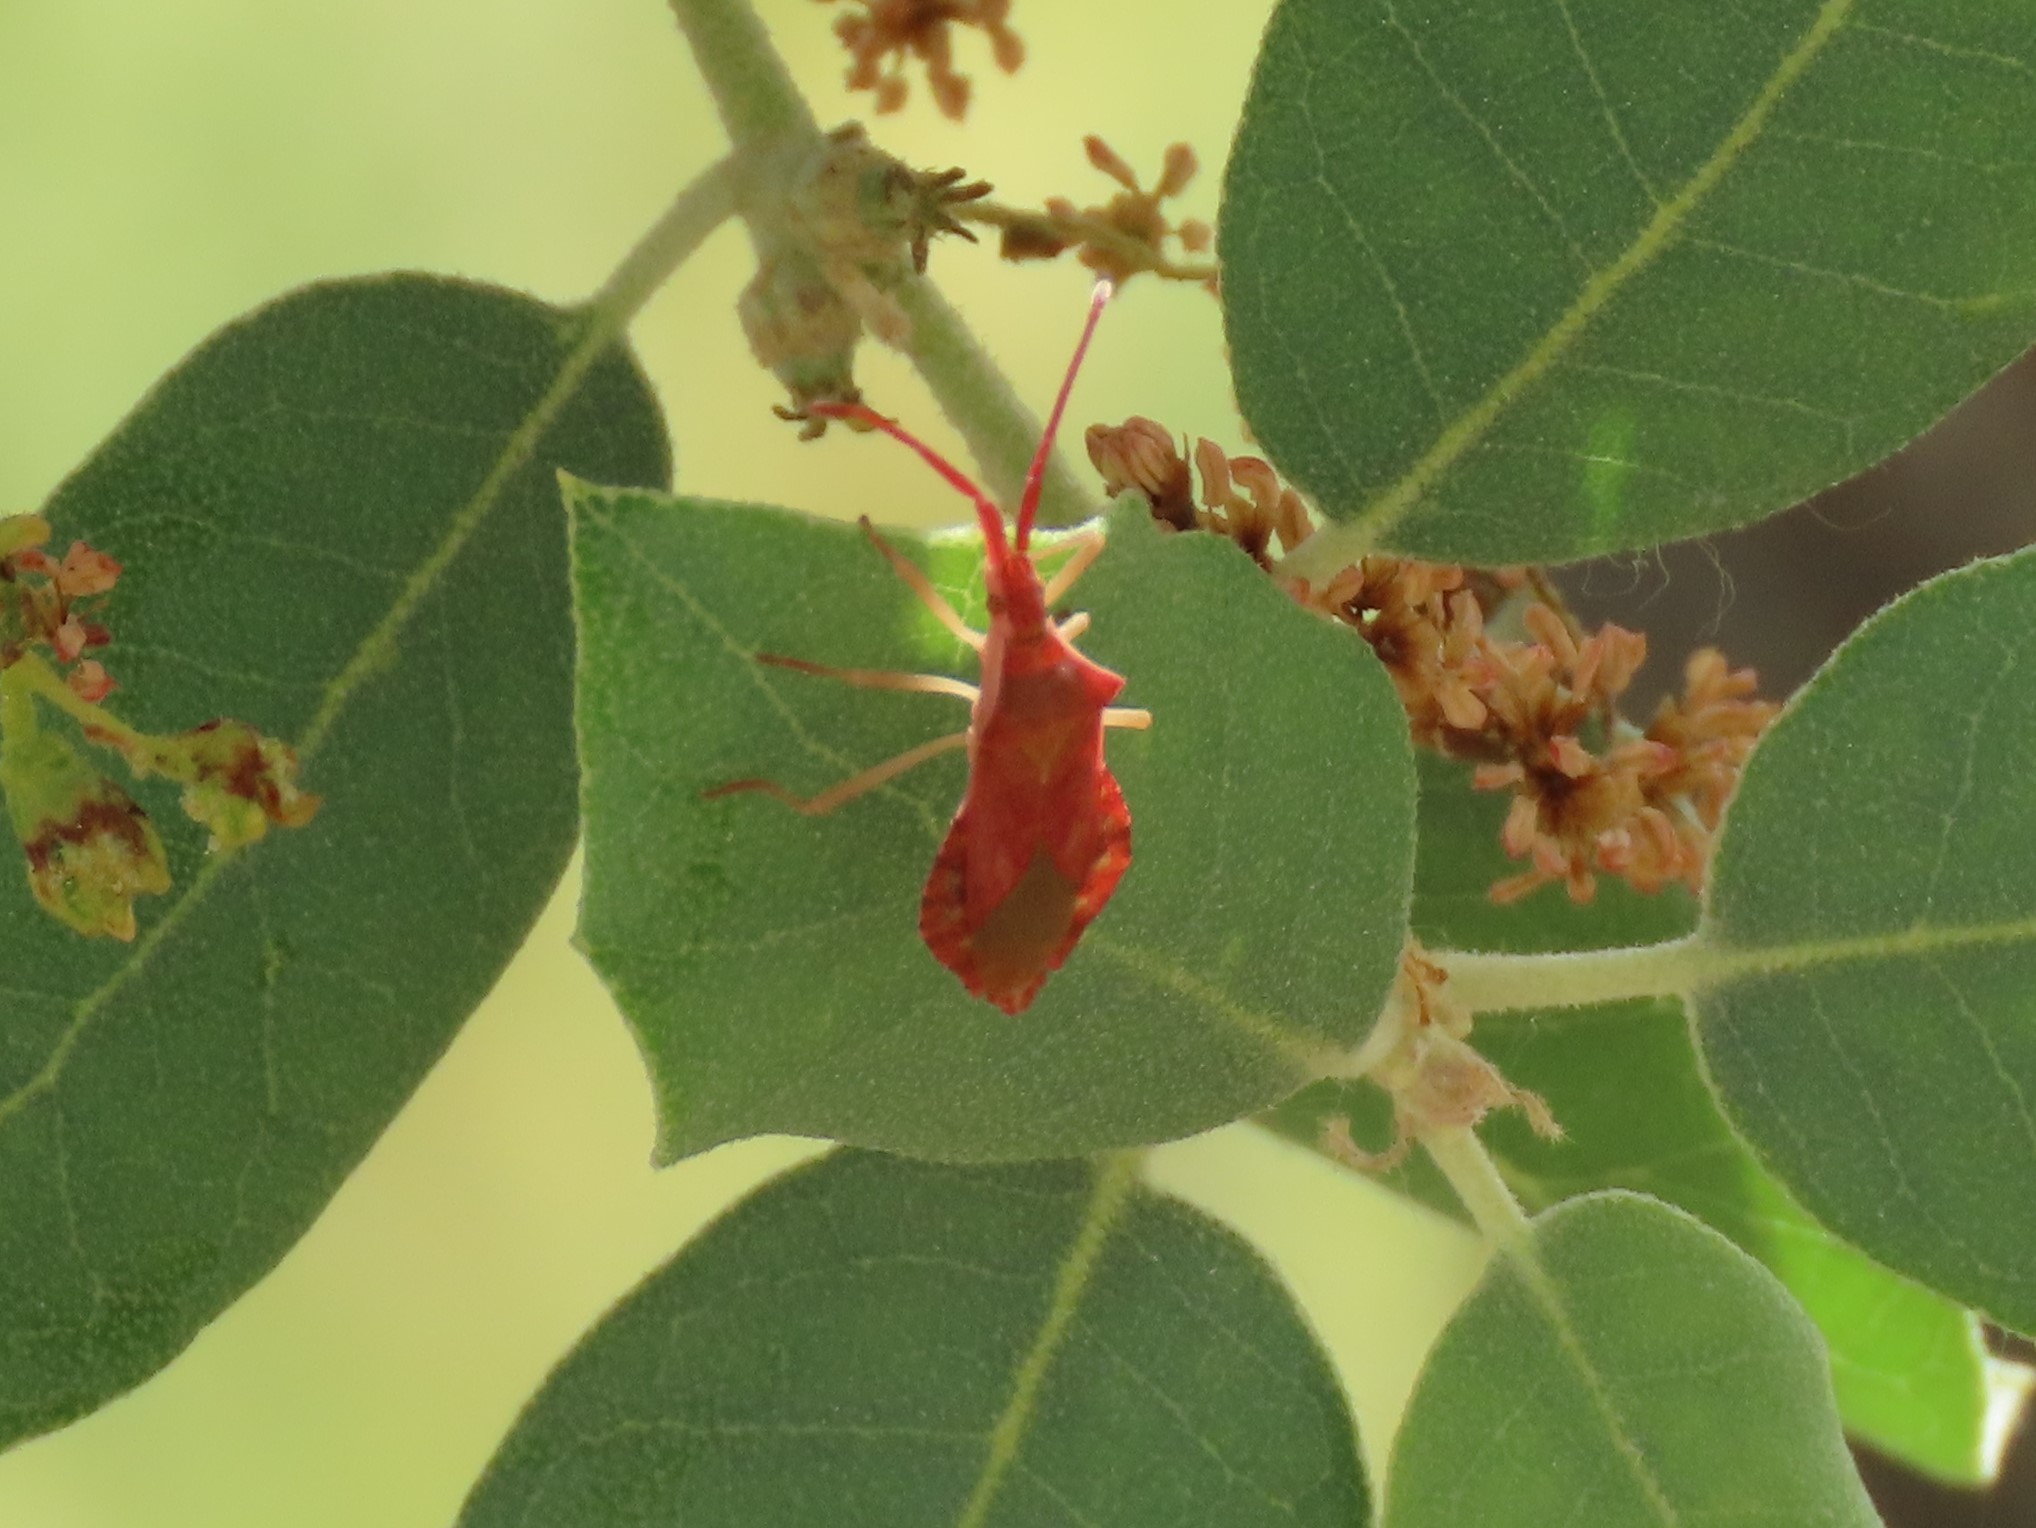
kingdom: Animalia
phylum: Arthropoda
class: Insecta
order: Hemiptera
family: Coreidae
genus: Haploprocta
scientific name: Haploprocta sulcicornis
